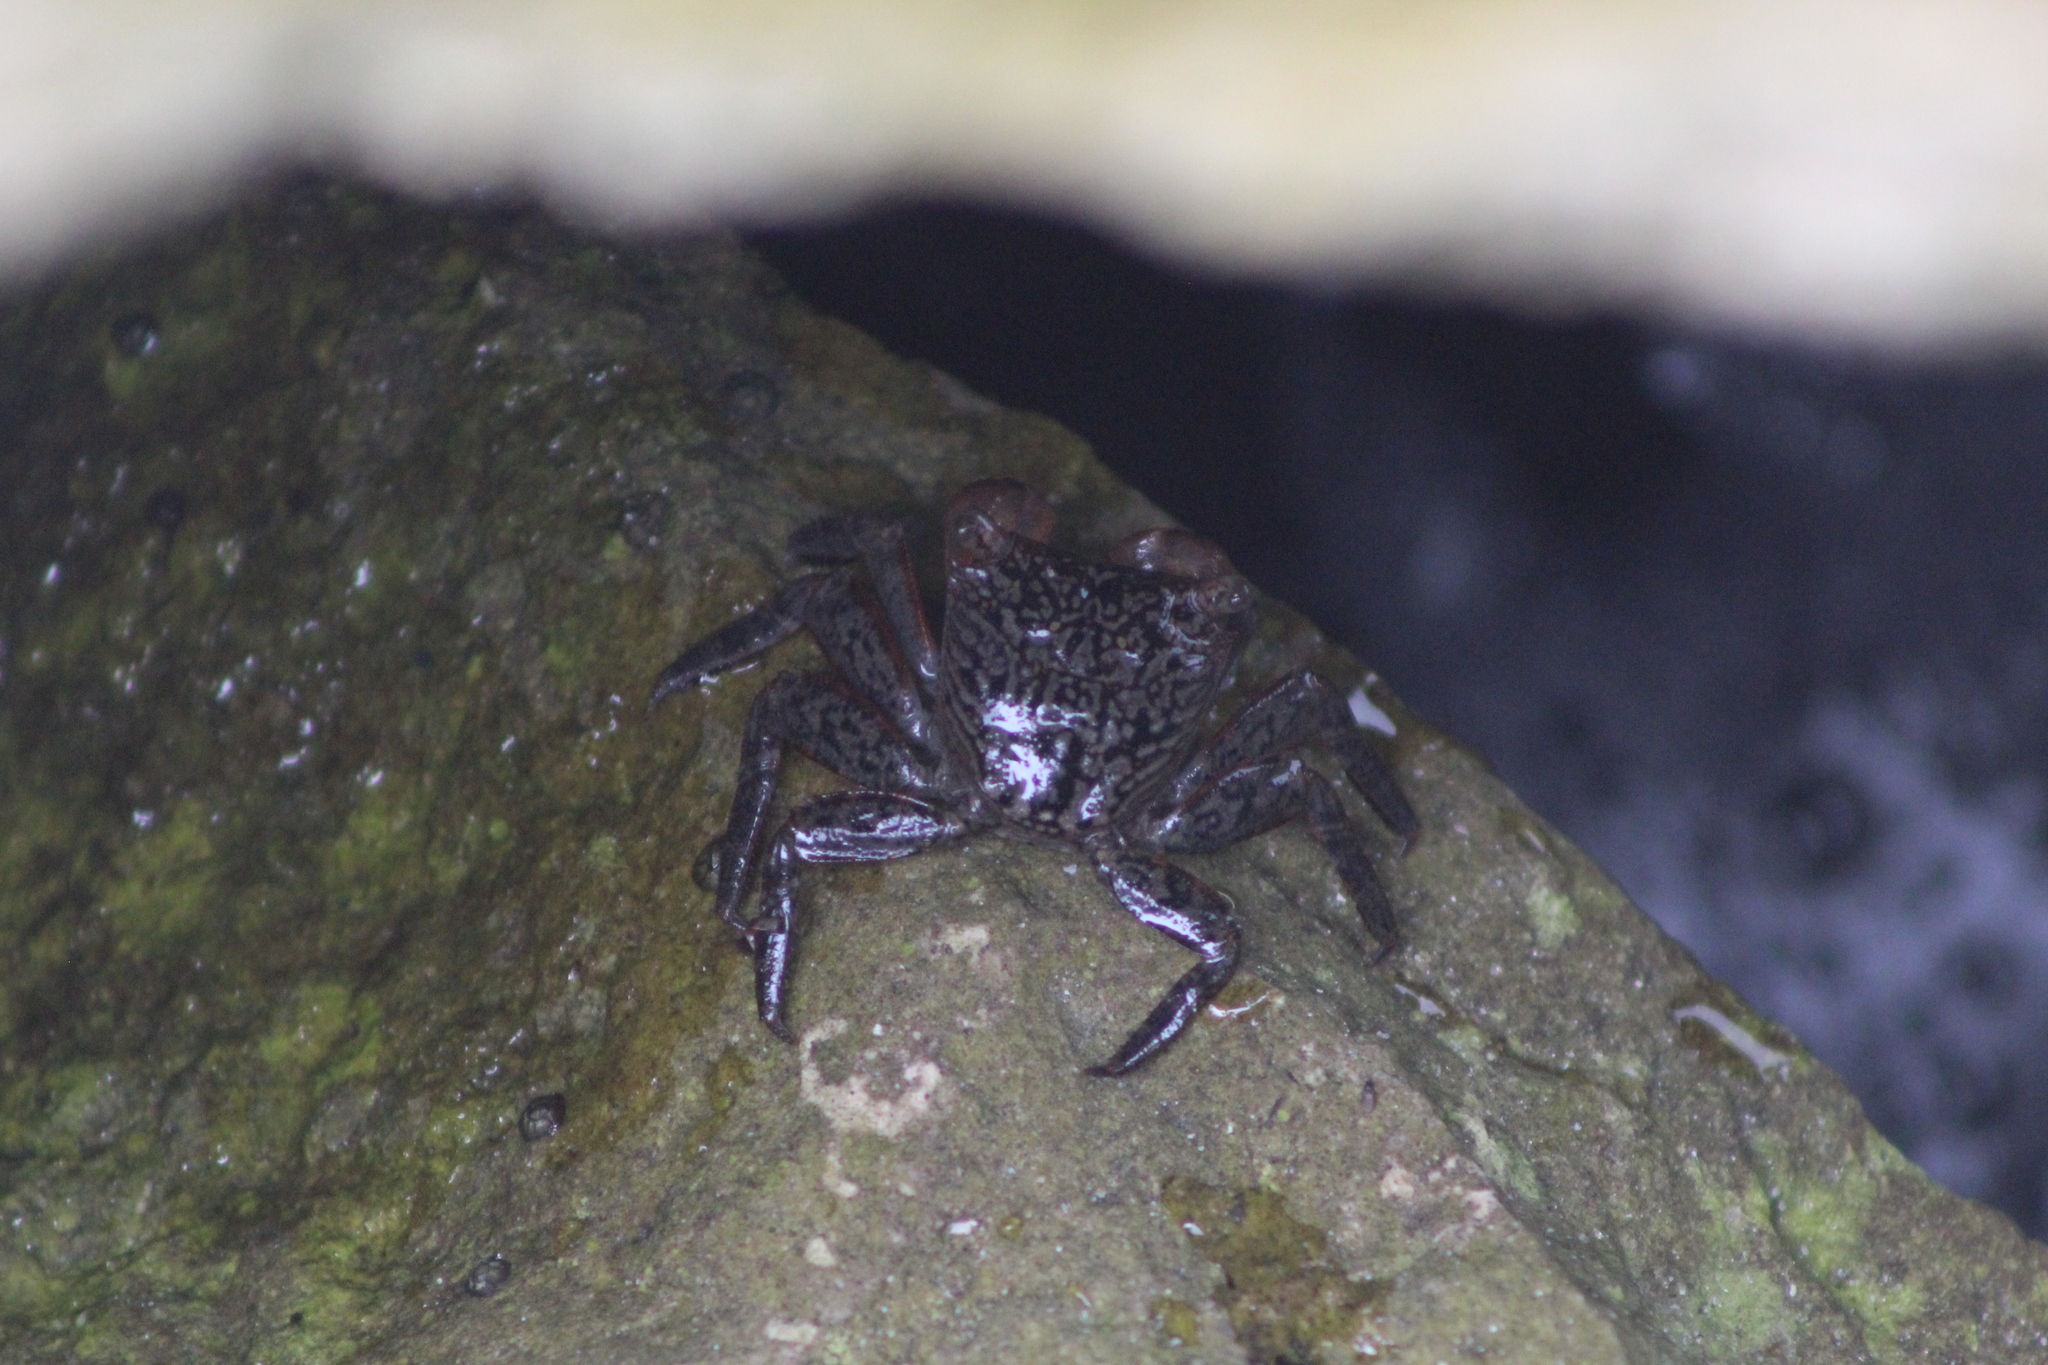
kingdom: Animalia
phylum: Arthropoda
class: Malacostraca
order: Decapoda
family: Sesarmidae
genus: Aratus
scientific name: Aratus pisonii
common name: Mangrove crab
